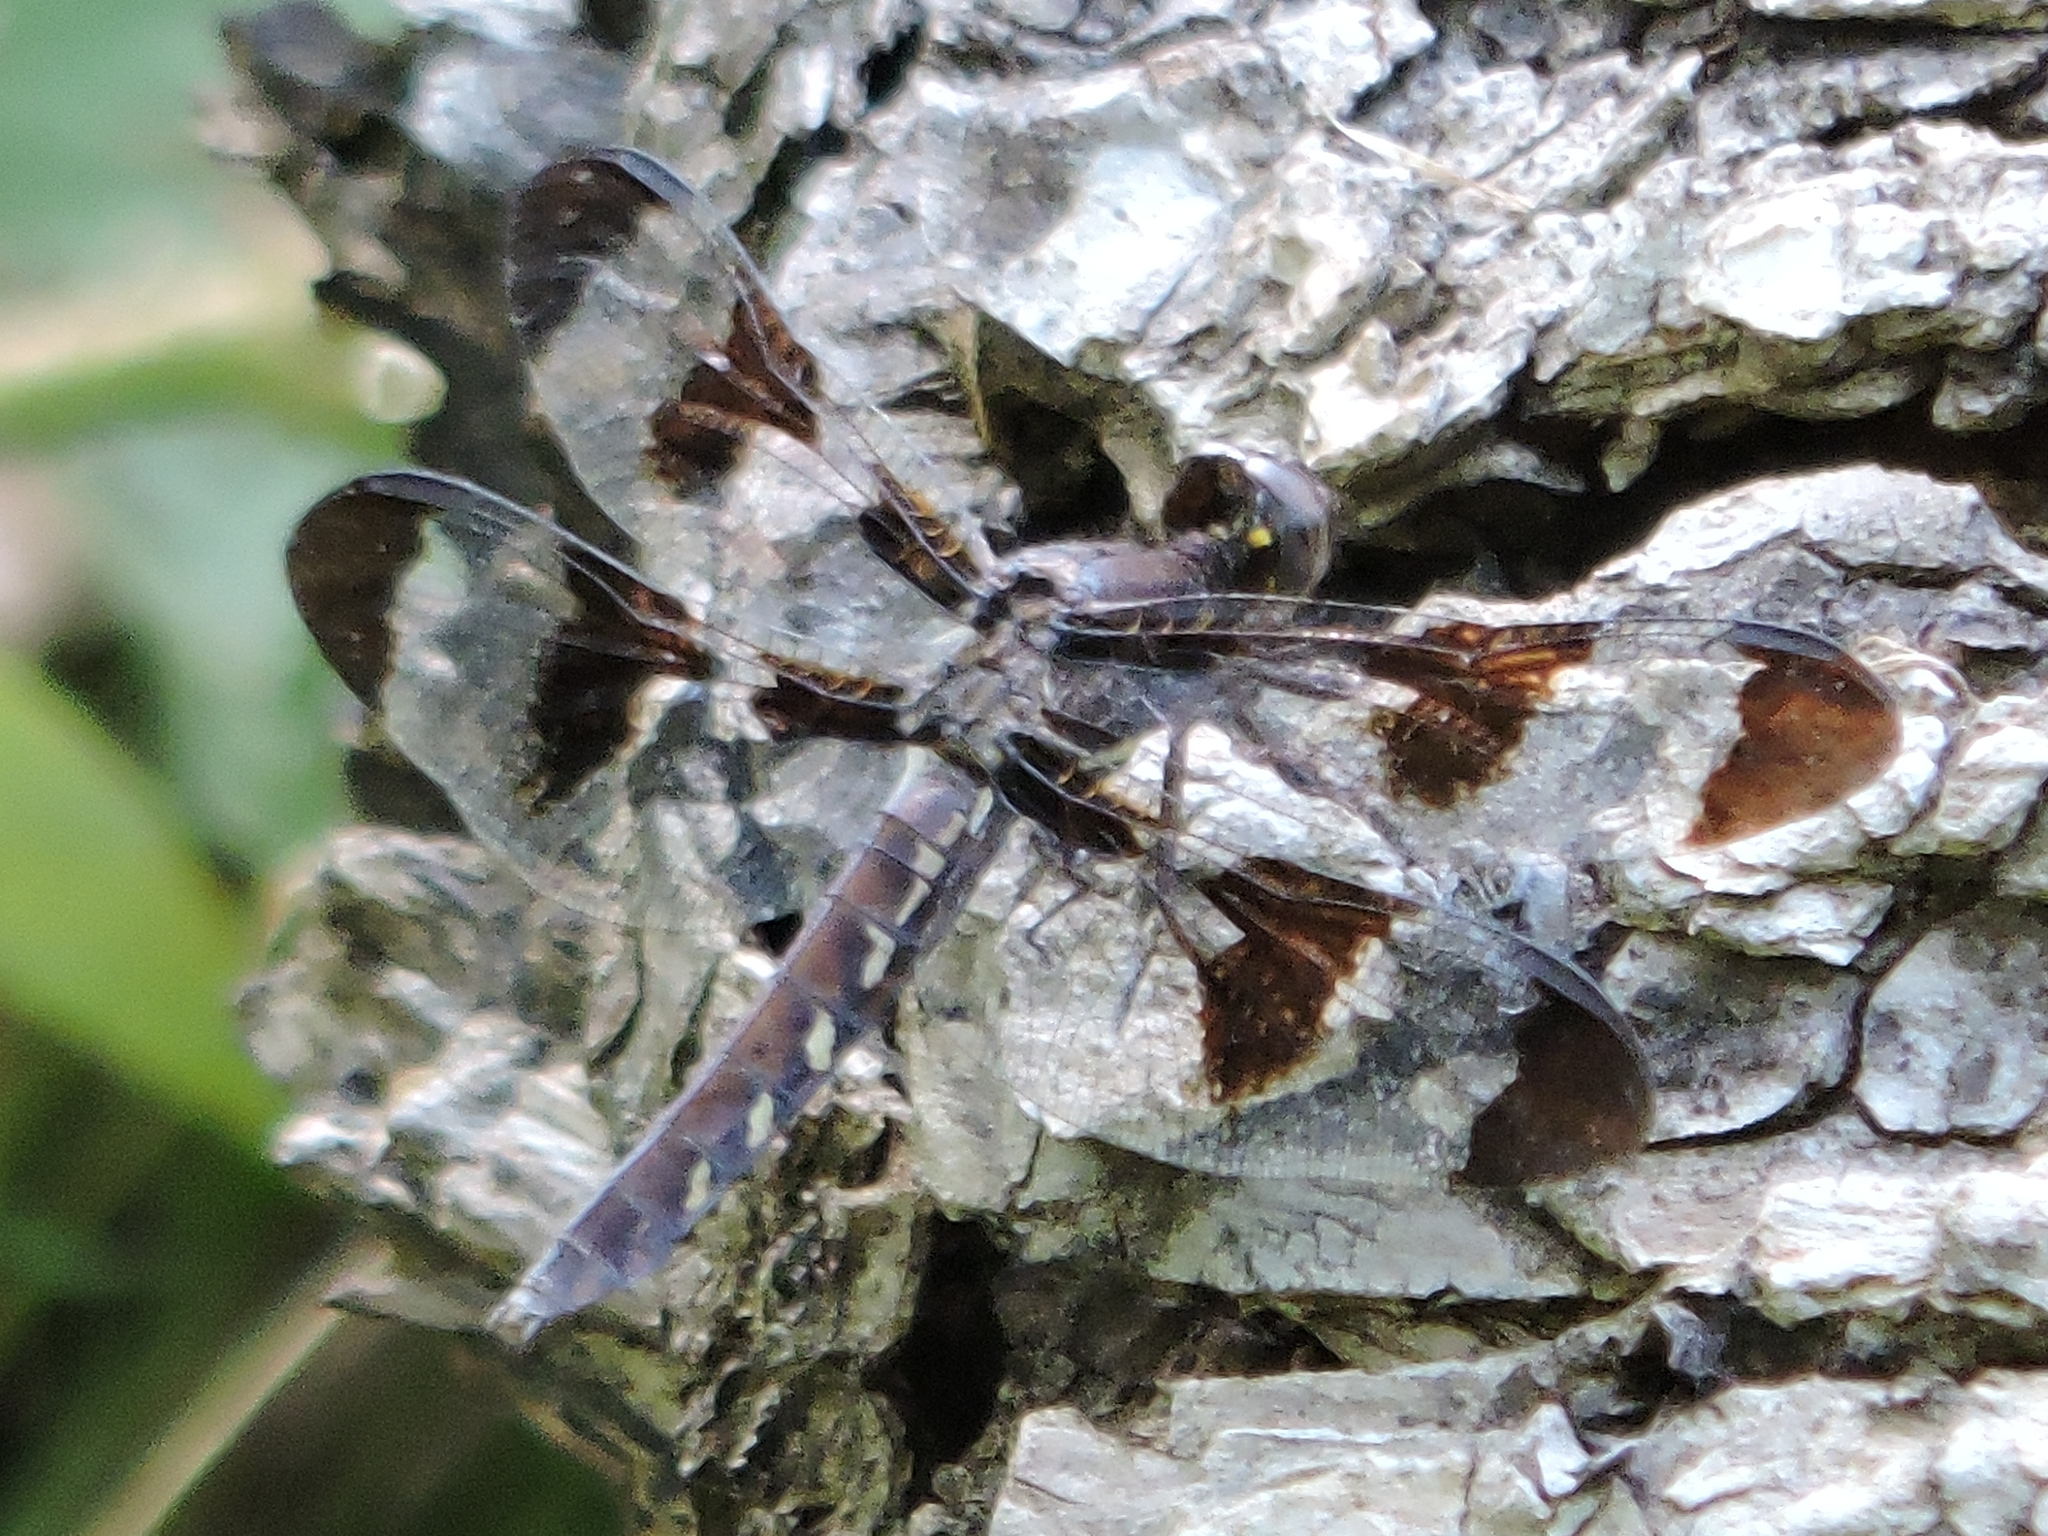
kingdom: Animalia
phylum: Arthropoda
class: Insecta
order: Odonata
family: Libellulidae
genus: Plathemis
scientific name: Plathemis lydia
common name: Common whitetail
